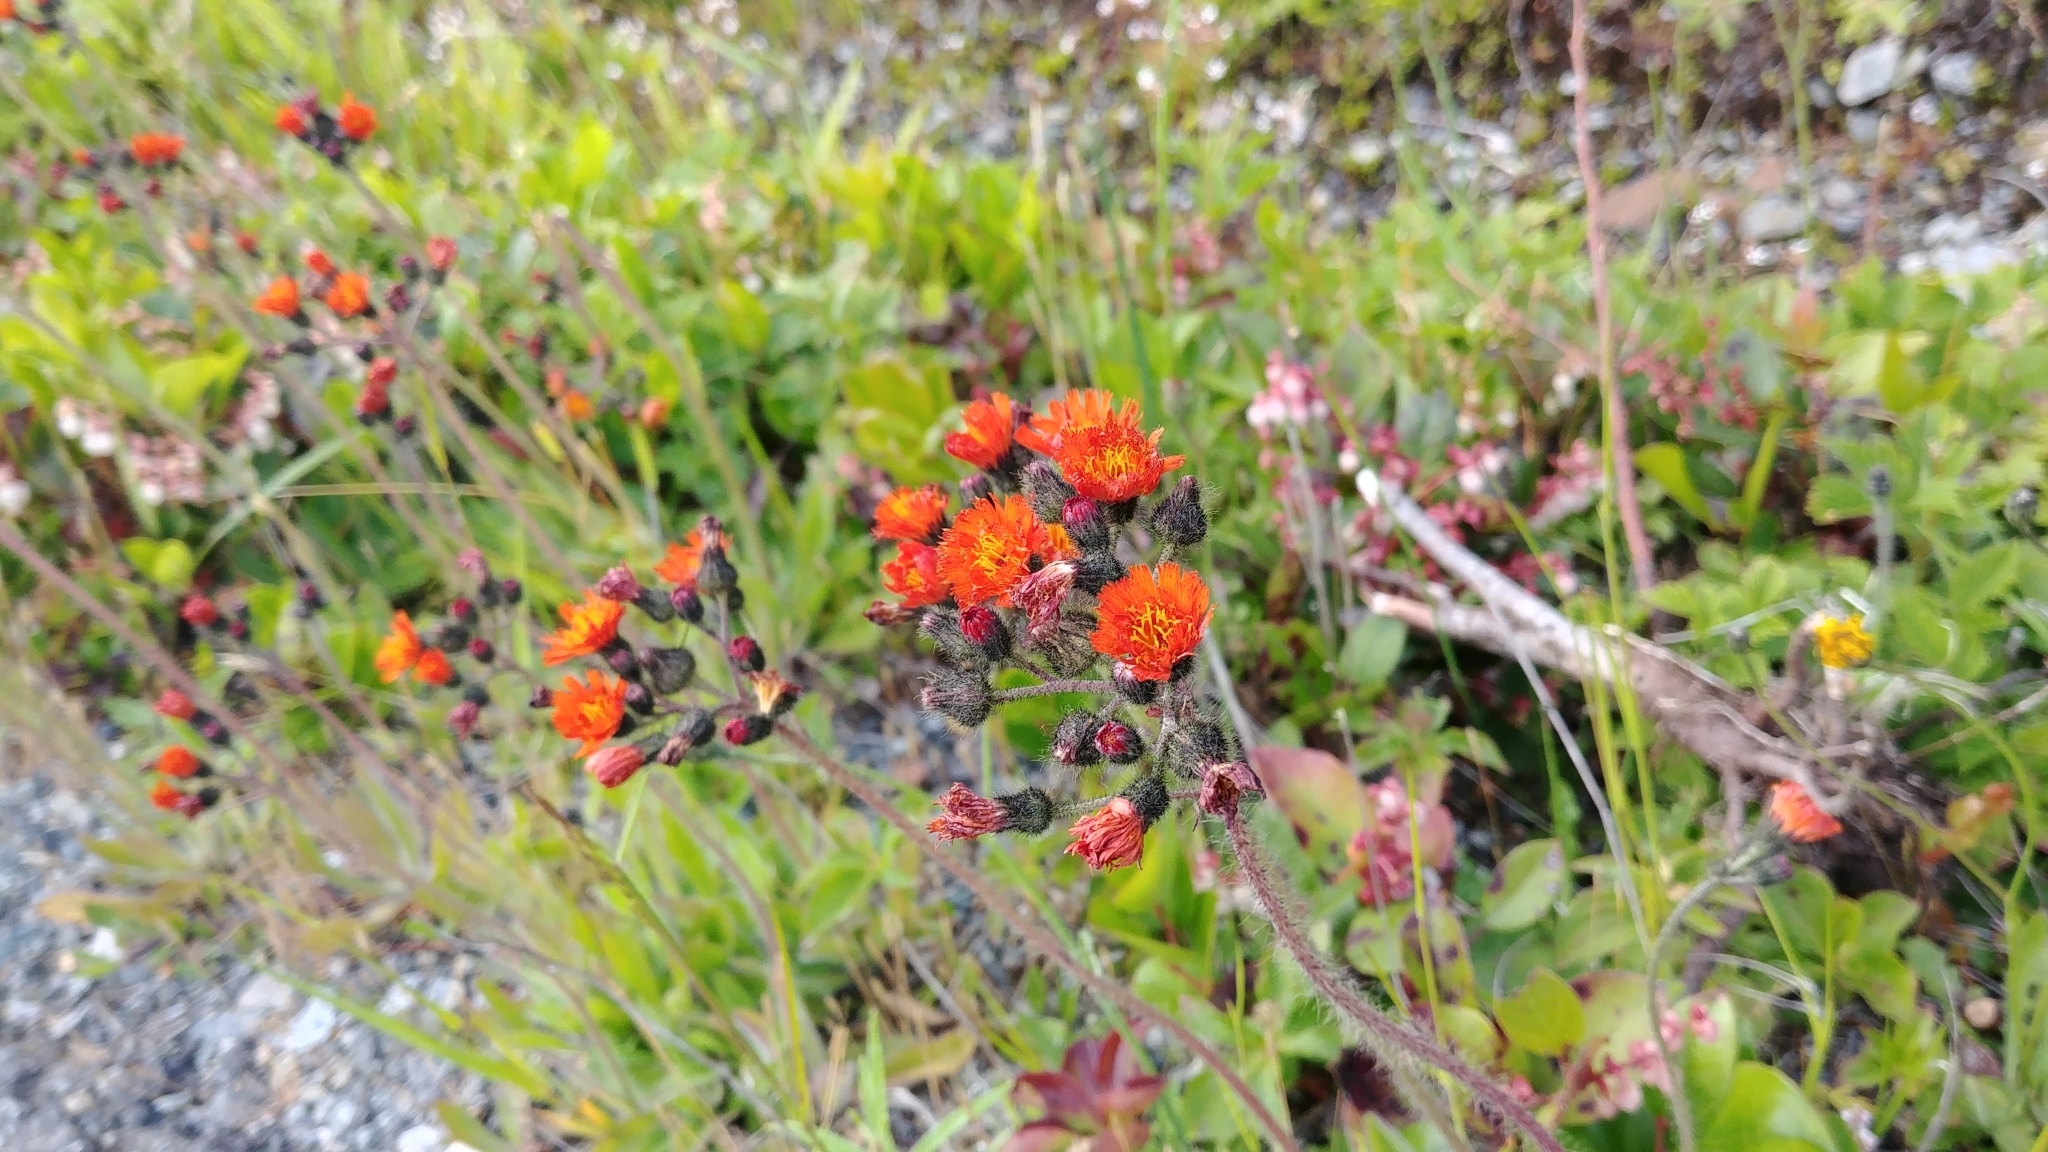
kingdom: Plantae
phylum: Tracheophyta
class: Magnoliopsida
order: Asterales
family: Asteraceae
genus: Pilosella
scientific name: Pilosella aurantiaca
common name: Fox-and-cubs
